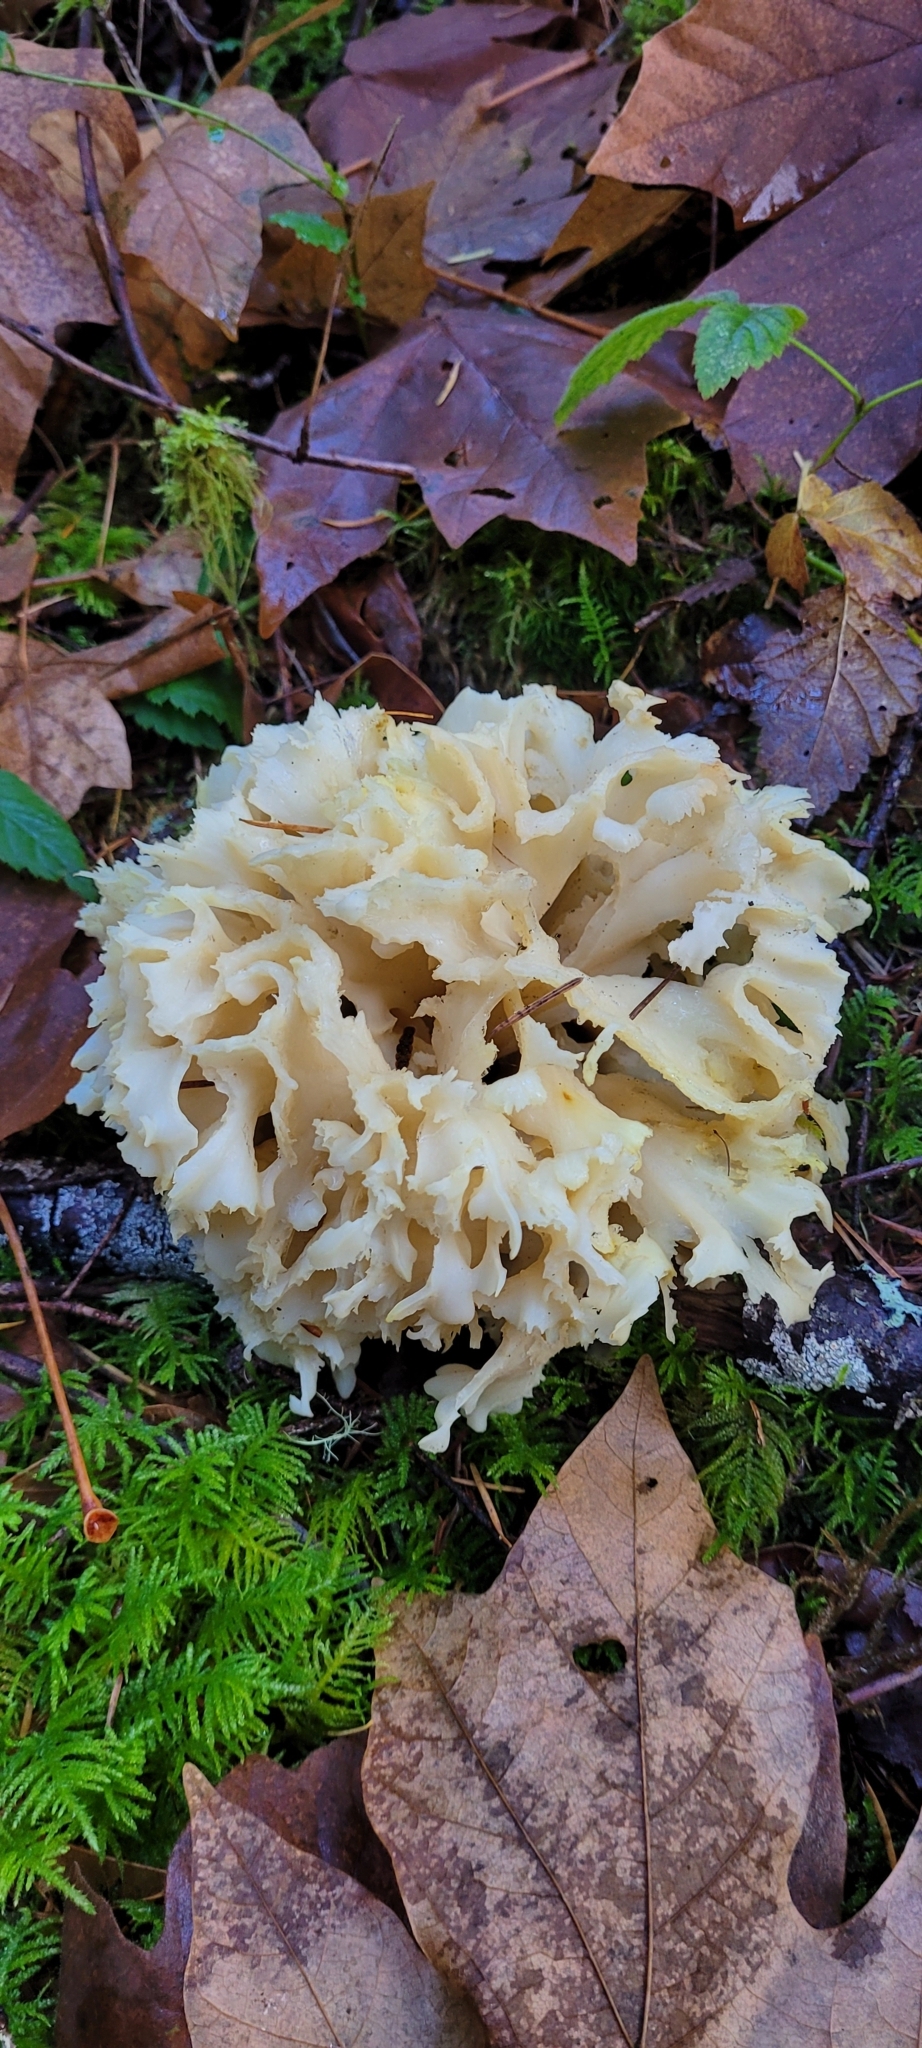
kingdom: Fungi
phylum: Basidiomycota
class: Agaricomycetes
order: Polyporales
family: Sparassidaceae
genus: Sparassis
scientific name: Sparassis radicata
